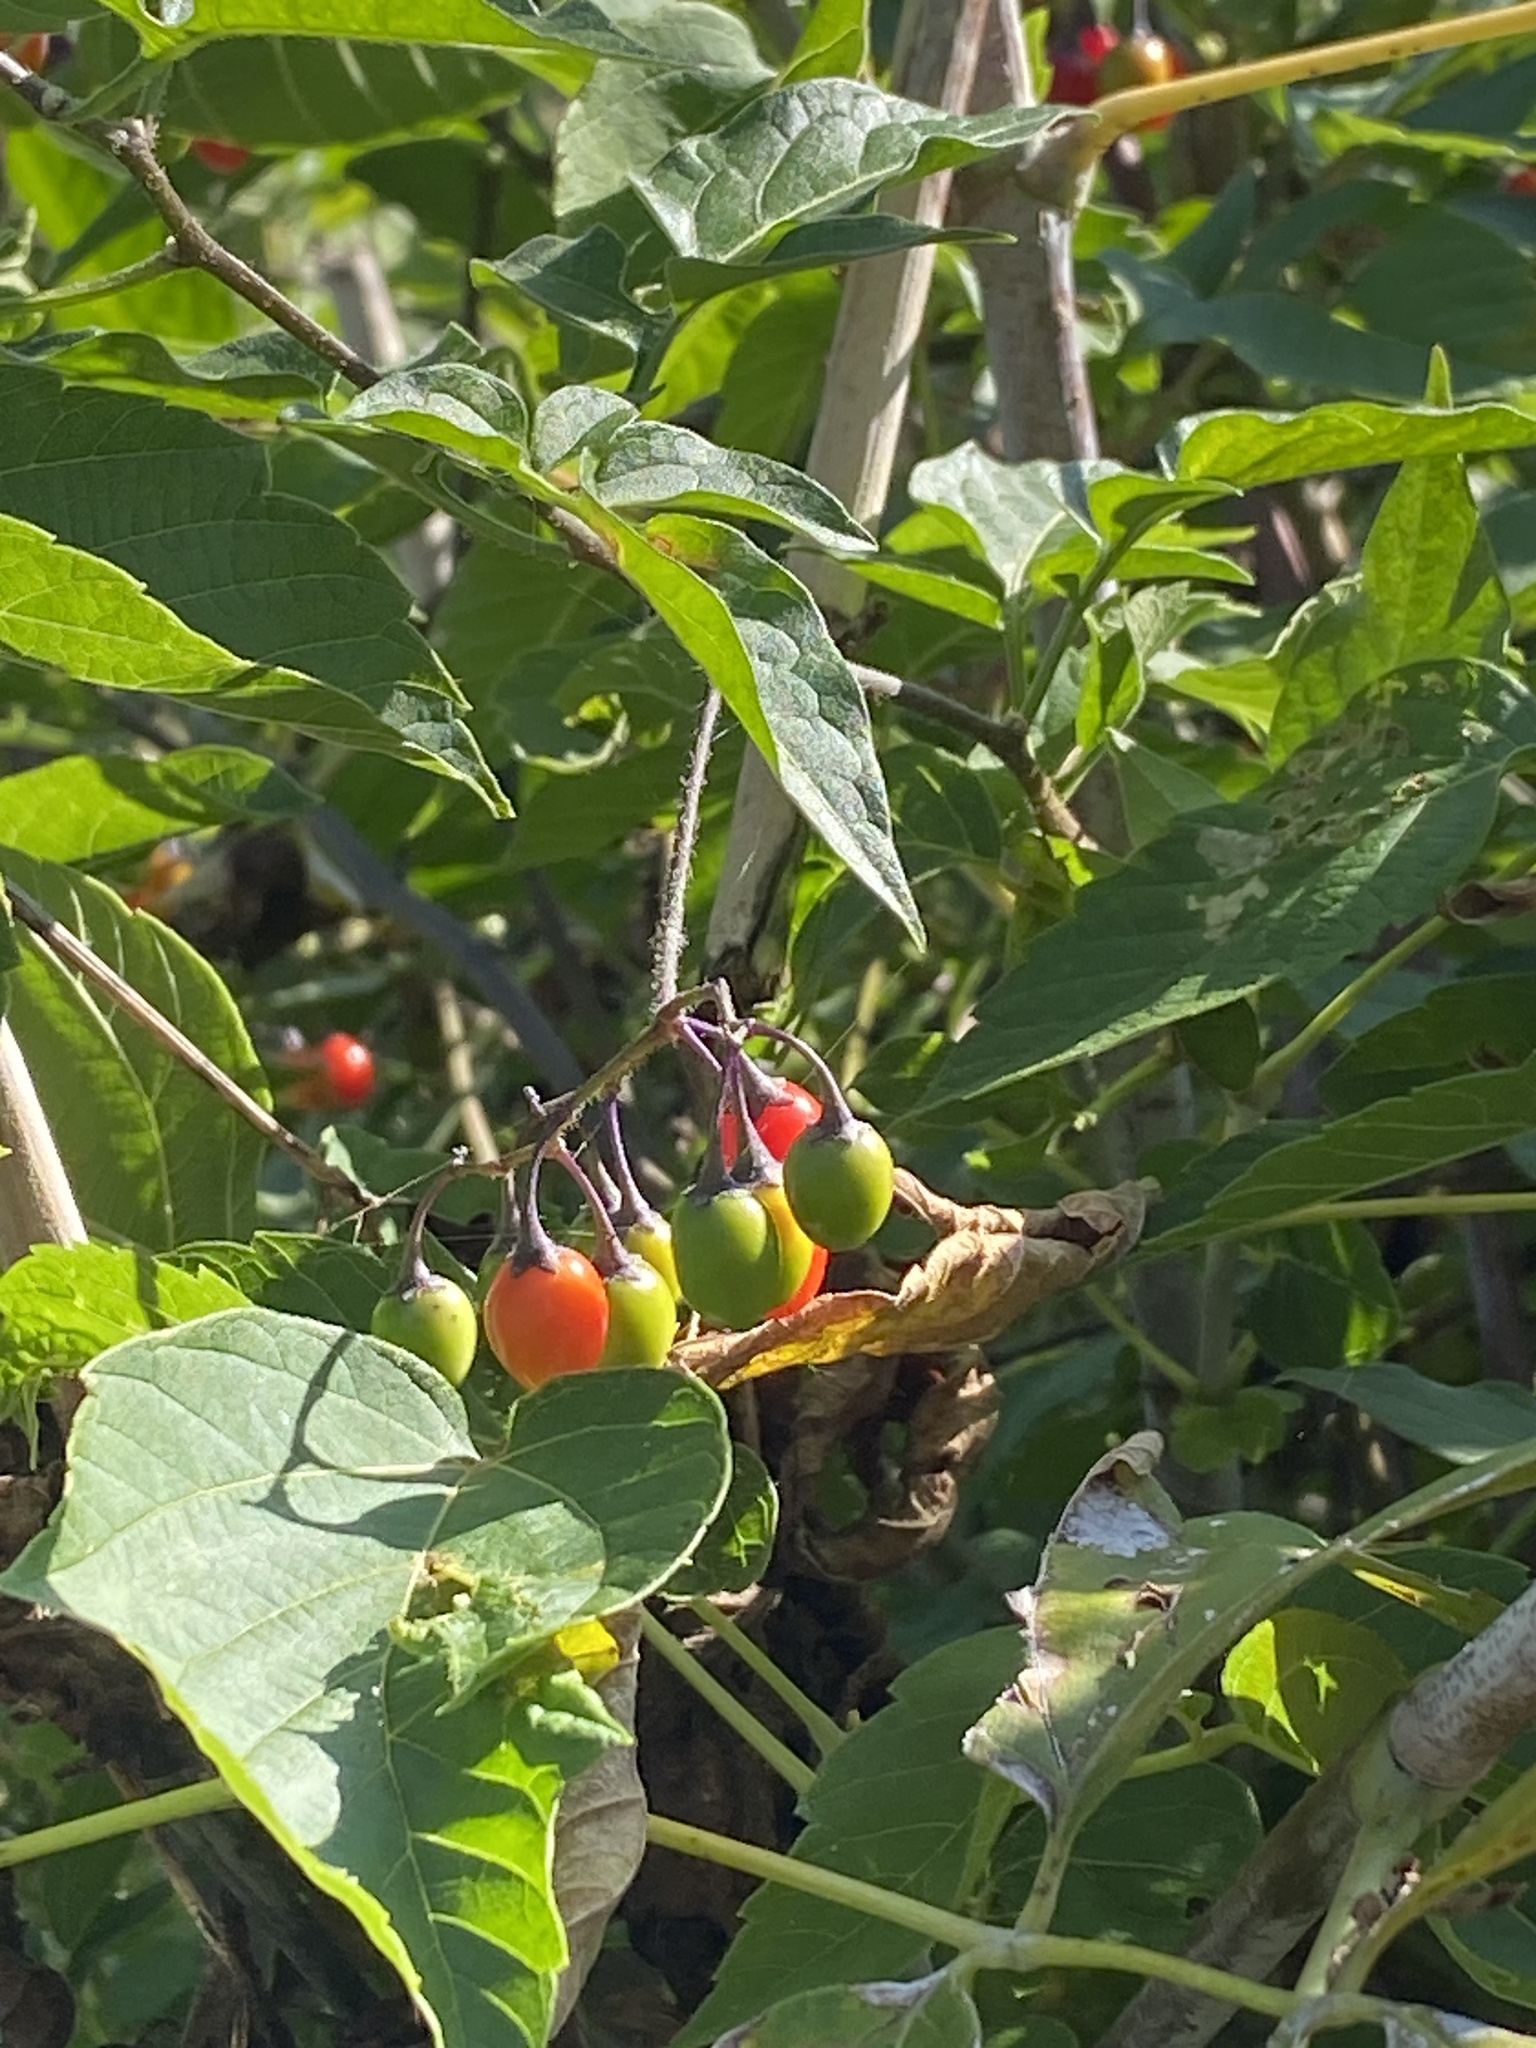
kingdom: Plantae
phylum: Tracheophyta
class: Magnoliopsida
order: Solanales
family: Solanaceae
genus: Solanum
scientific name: Solanum dulcamara
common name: Climbing nightshade
